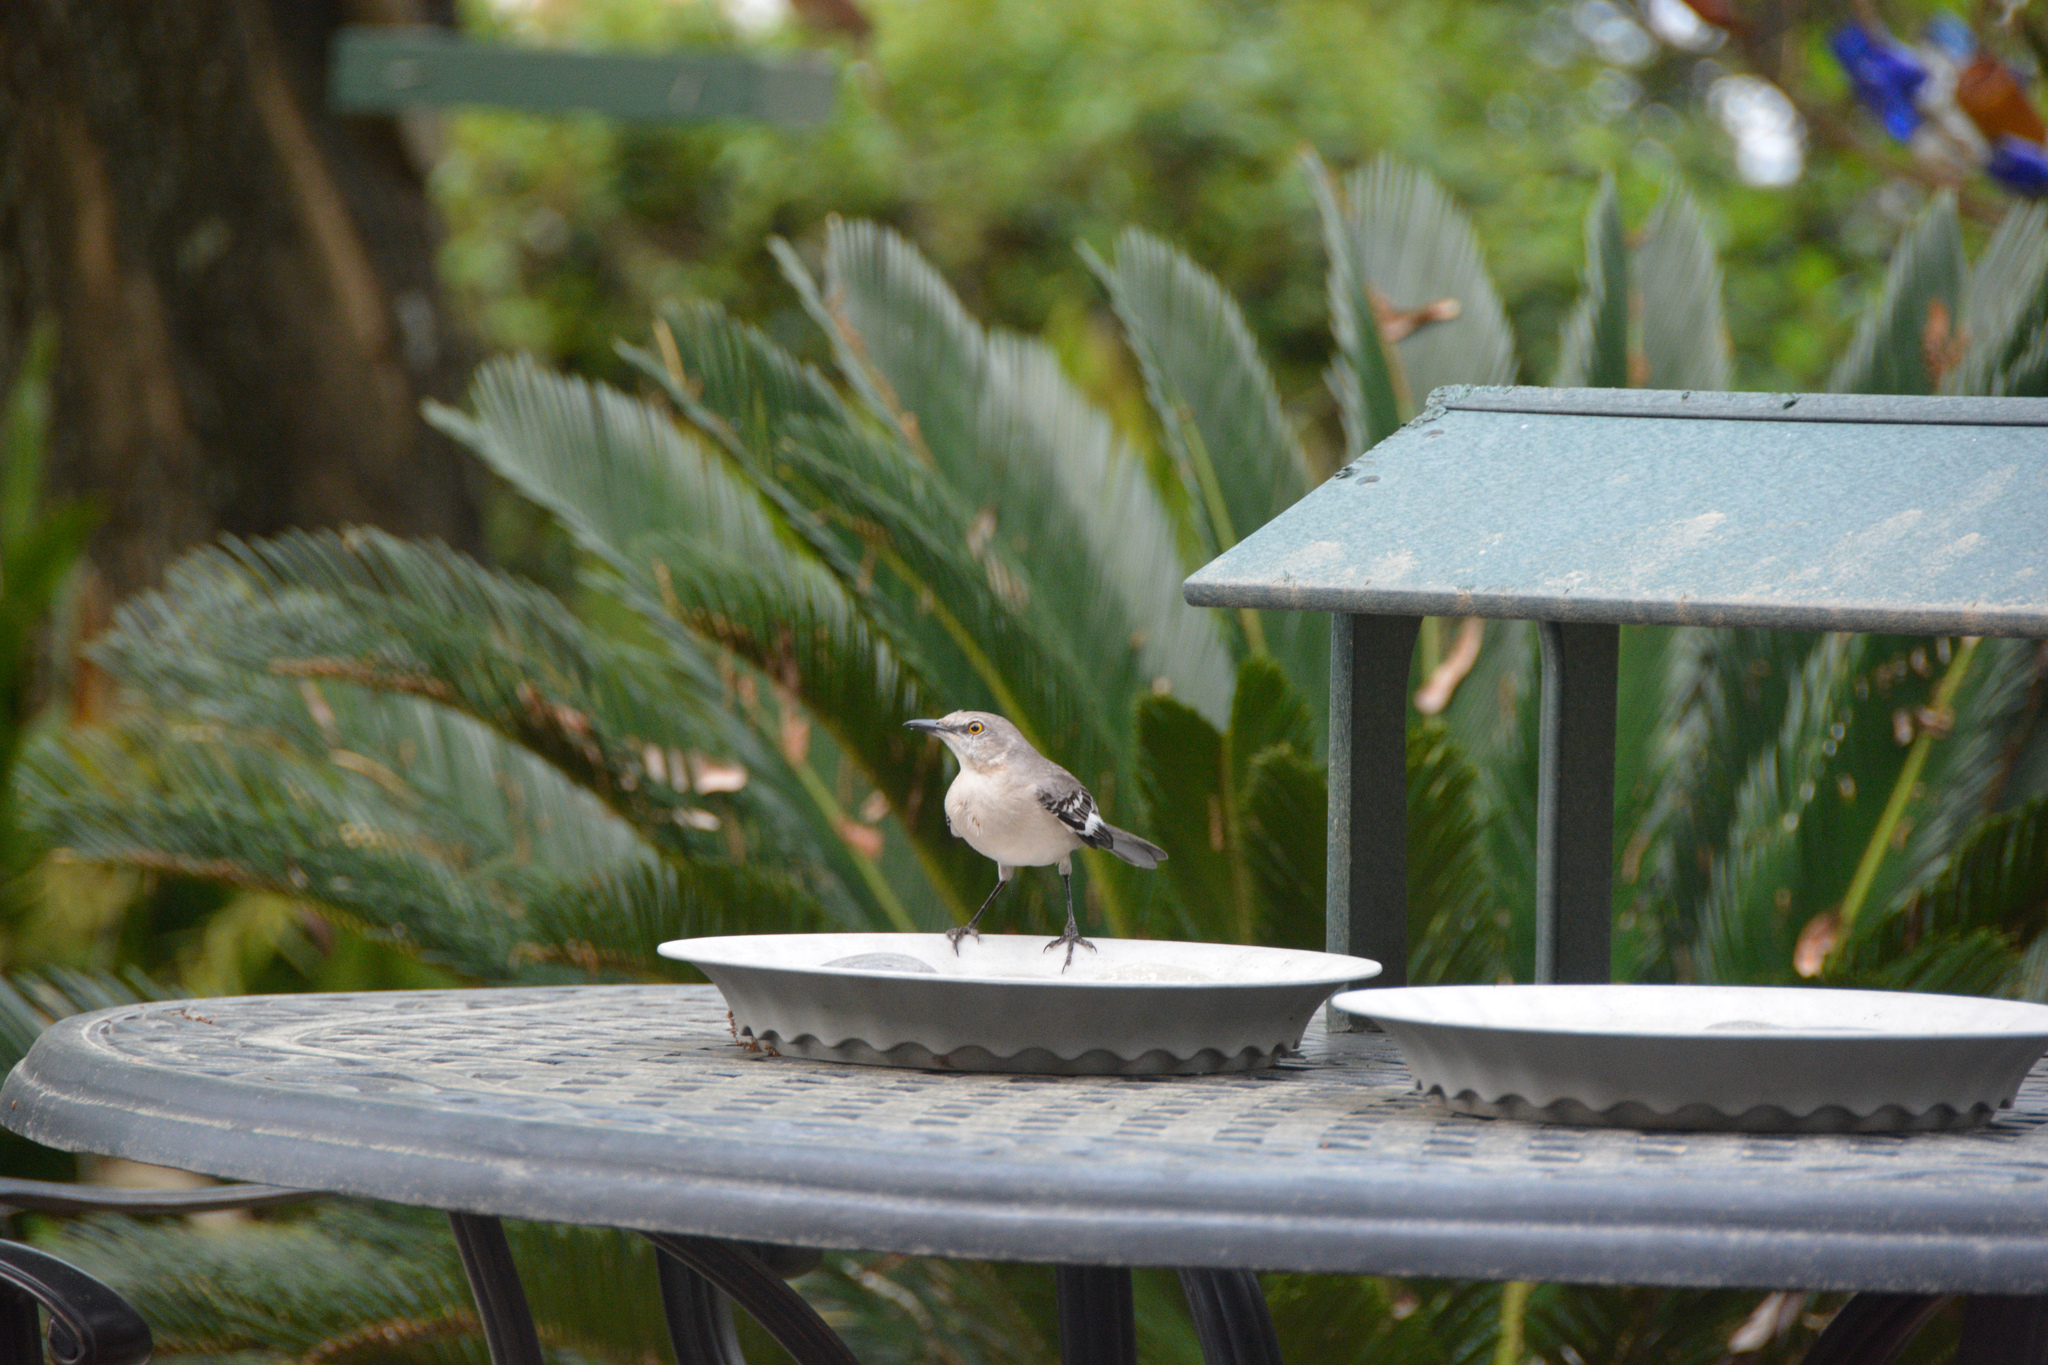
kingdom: Animalia
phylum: Chordata
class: Aves
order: Passeriformes
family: Mimidae
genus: Mimus
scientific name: Mimus polyglottos
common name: Northern mockingbird
